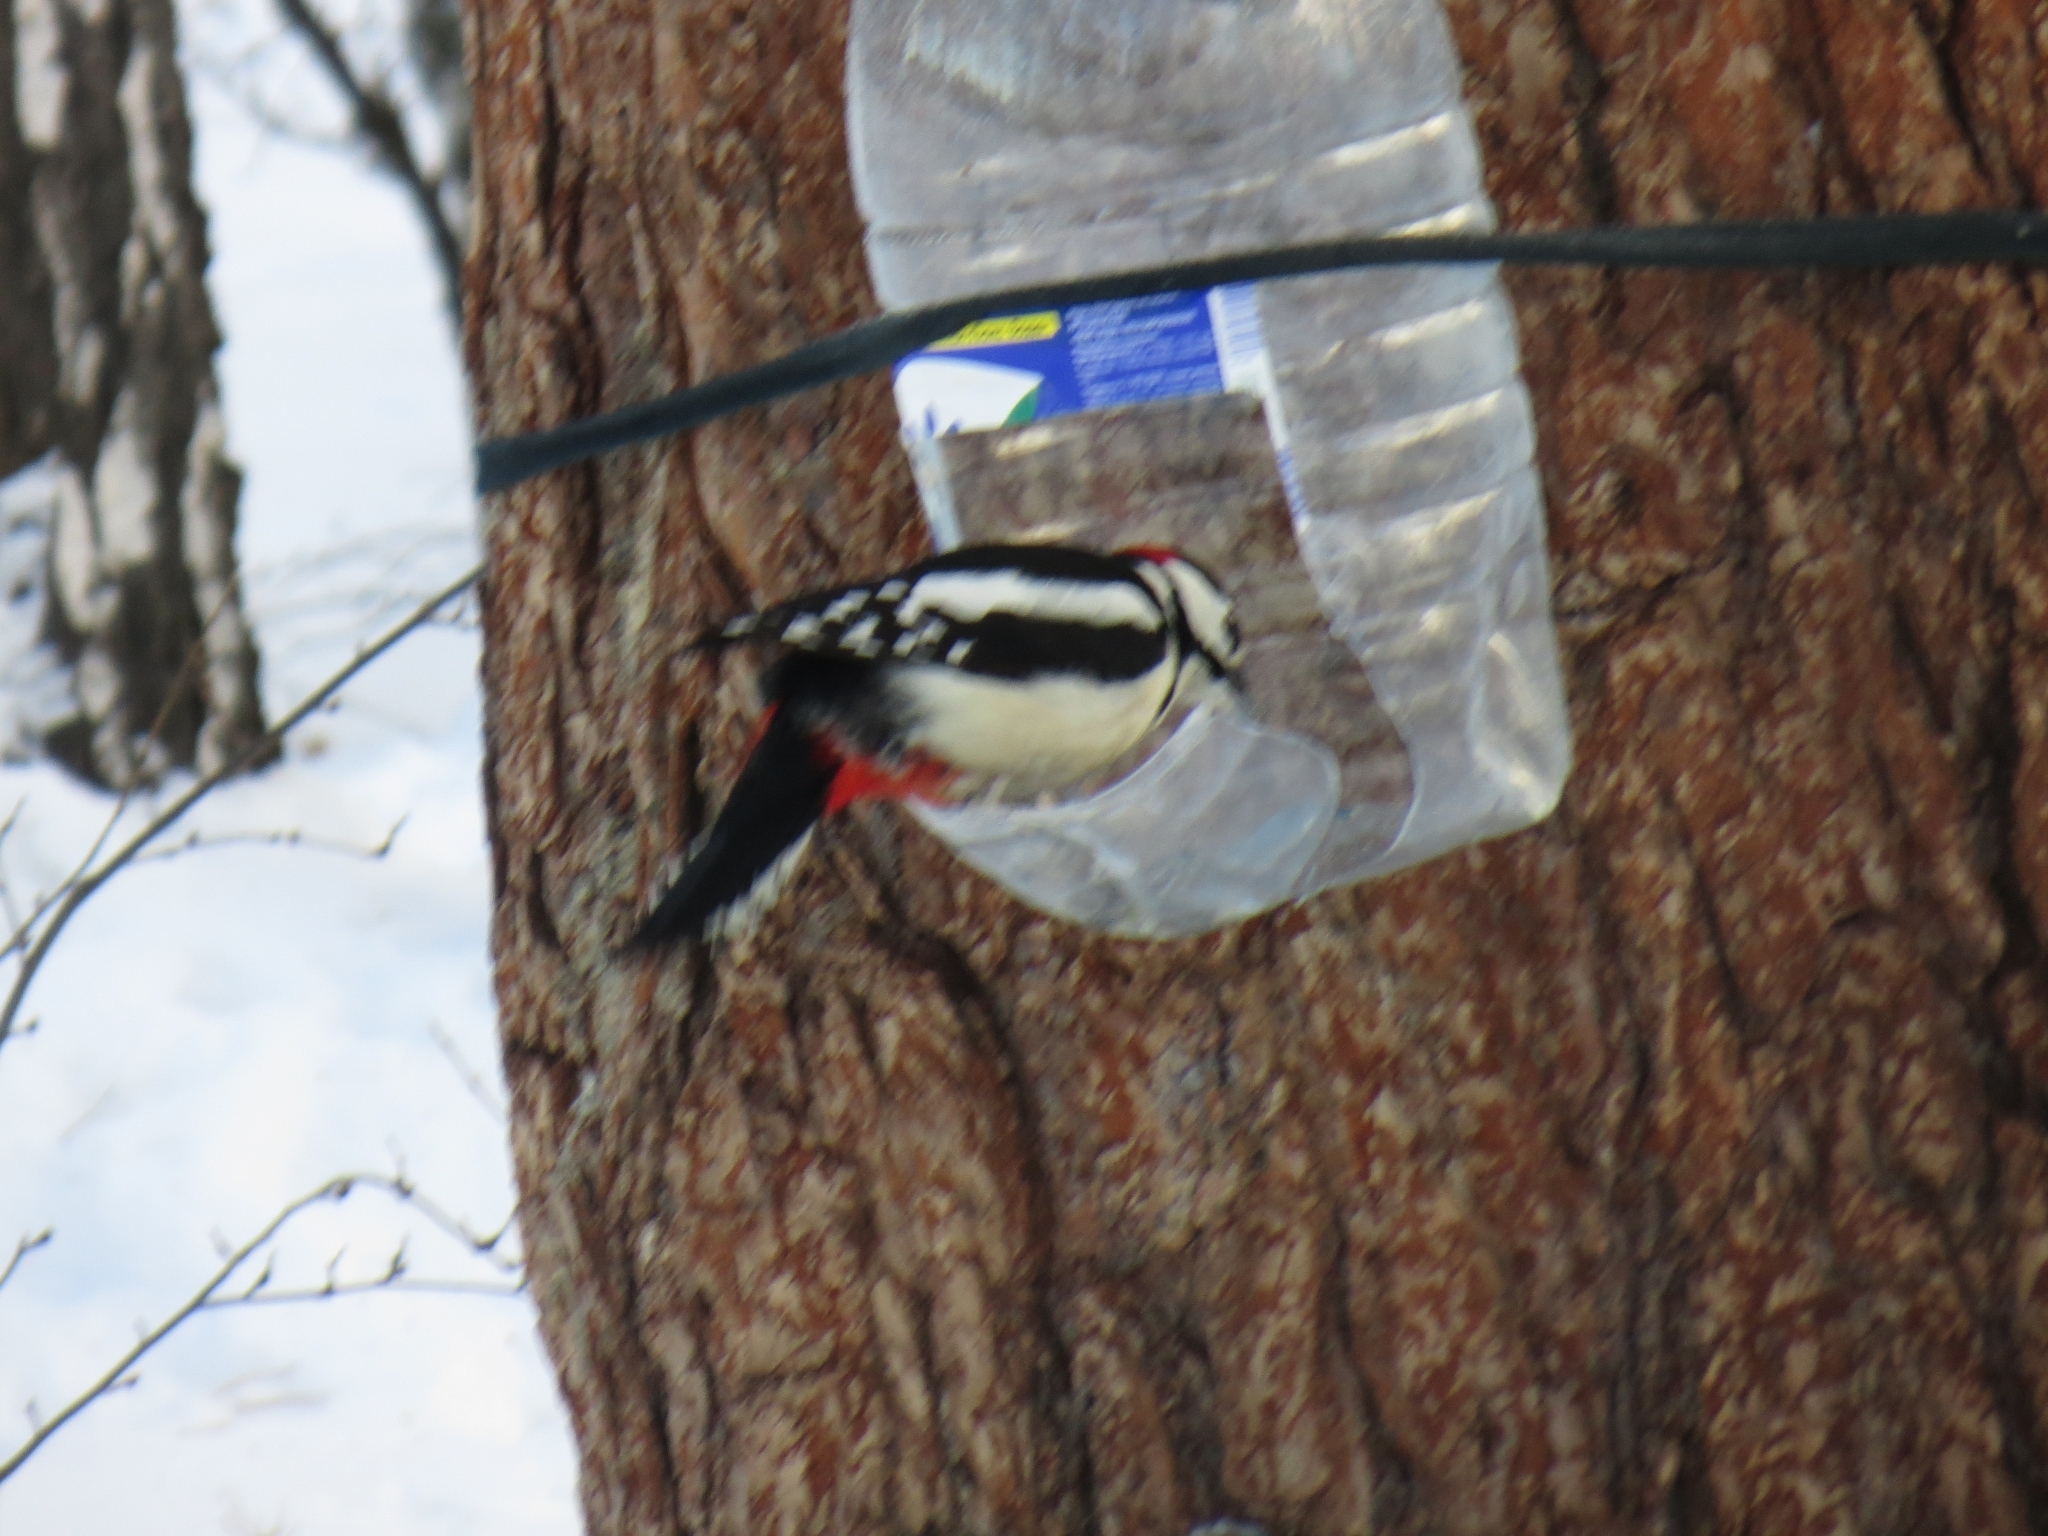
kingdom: Animalia
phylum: Chordata
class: Aves
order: Piciformes
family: Picidae
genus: Dendrocopos
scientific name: Dendrocopos major
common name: Great spotted woodpecker
